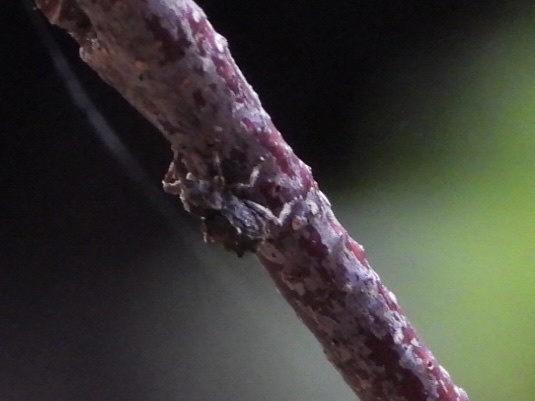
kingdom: Animalia
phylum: Arthropoda
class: Insecta
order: Coleoptera
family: Curculionidae
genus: Aparopion
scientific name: Aparopion horridus
